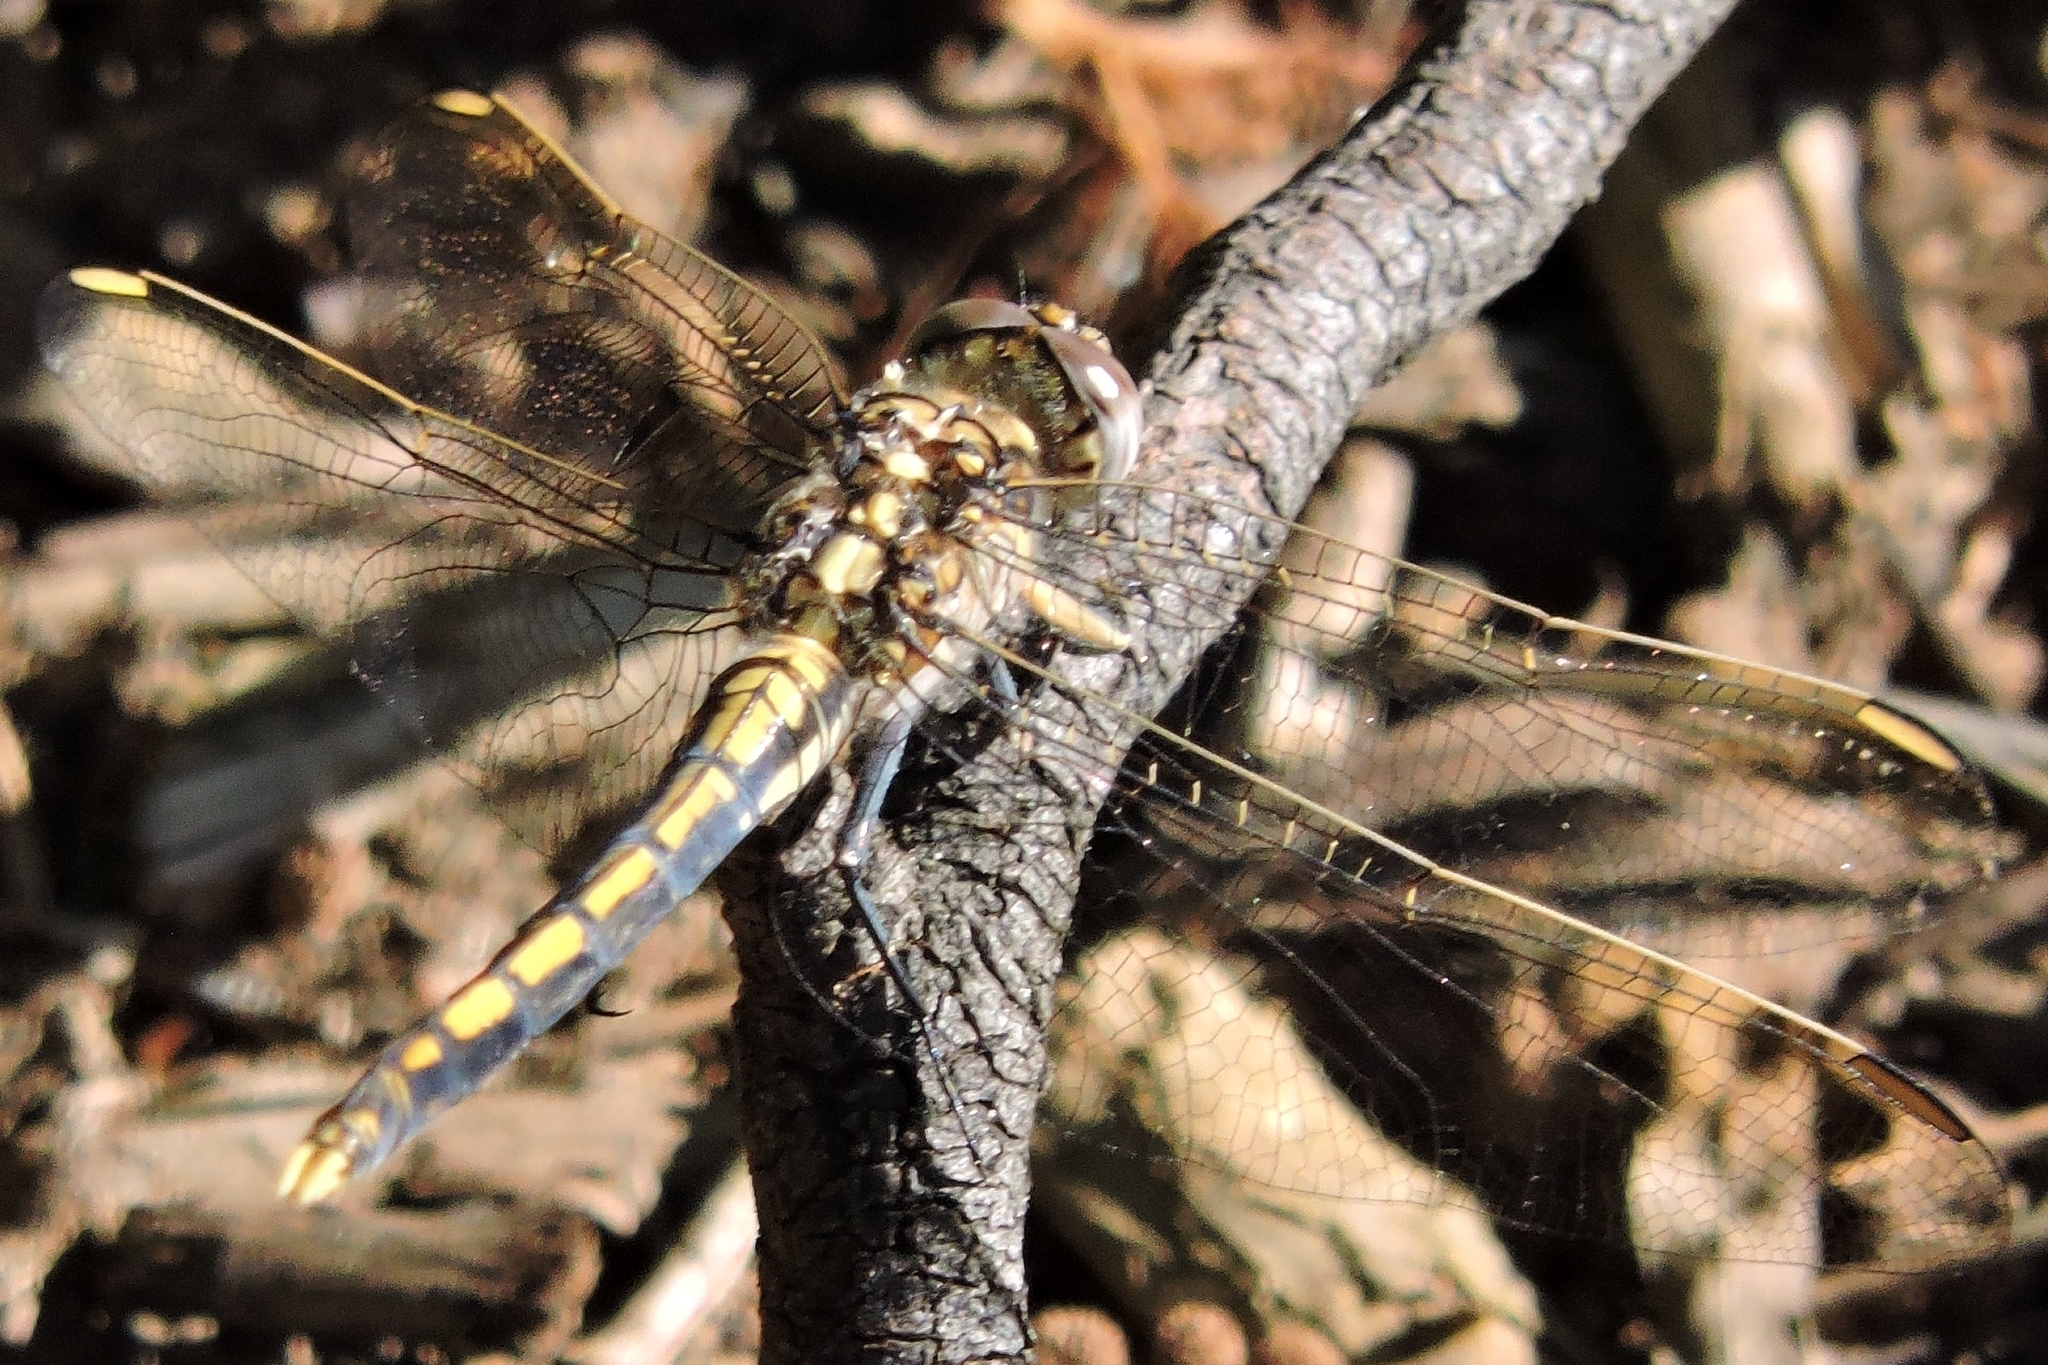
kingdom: Animalia
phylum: Arthropoda
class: Insecta
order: Odonata
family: Libellulidae
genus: Orthetrum
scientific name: Orthetrum caledonicum
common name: Blue skimmer
